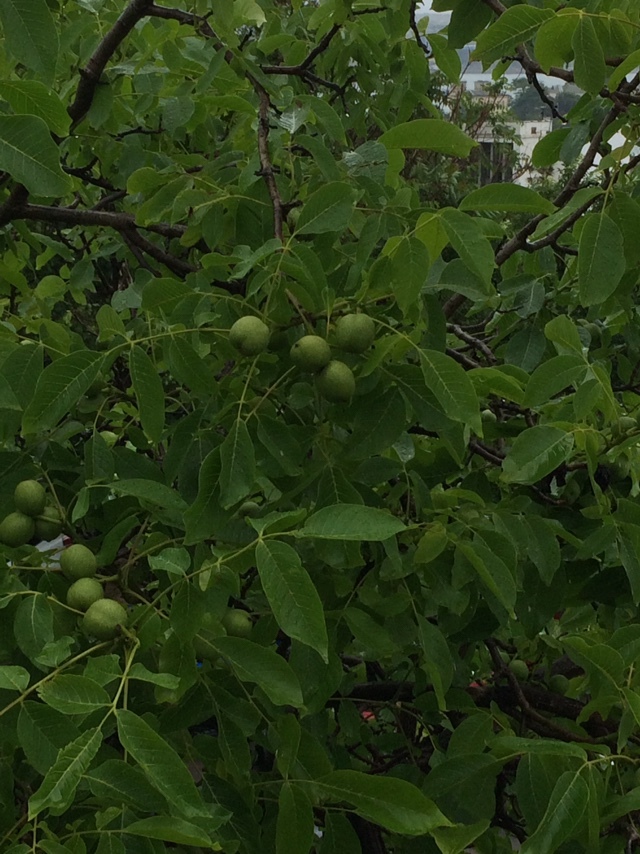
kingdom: Plantae
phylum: Tracheophyta
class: Magnoliopsida
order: Fagales
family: Juglandaceae
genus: Juglans
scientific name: Juglans regia
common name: Walnut
